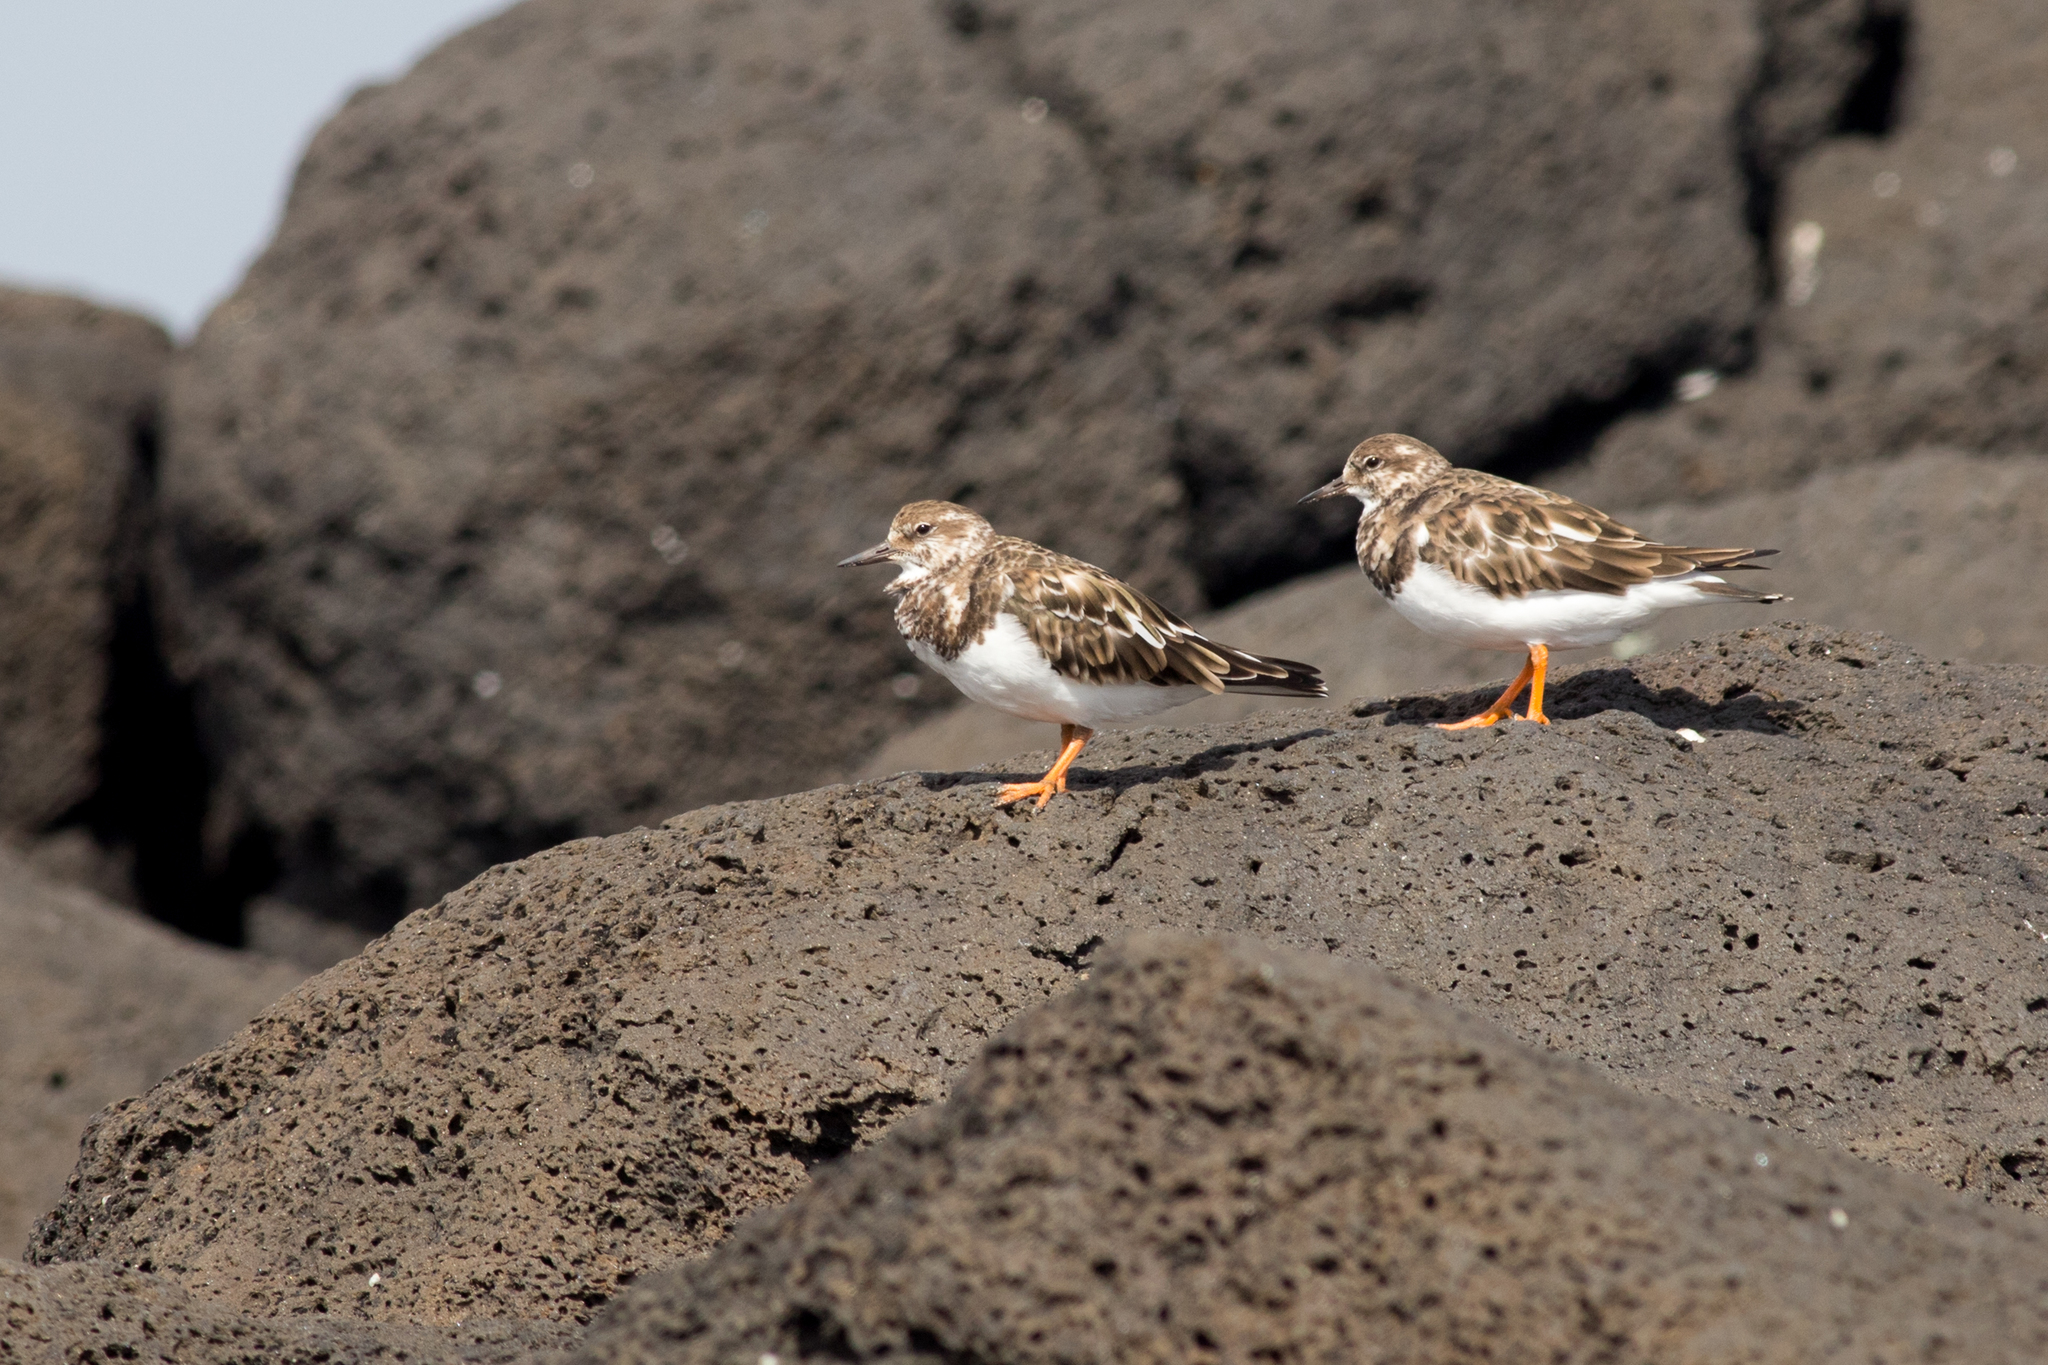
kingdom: Animalia
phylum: Chordata
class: Aves
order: Charadriiformes
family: Scolopacidae
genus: Arenaria
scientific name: Arenaria interpres
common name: Ruddy turnstone
